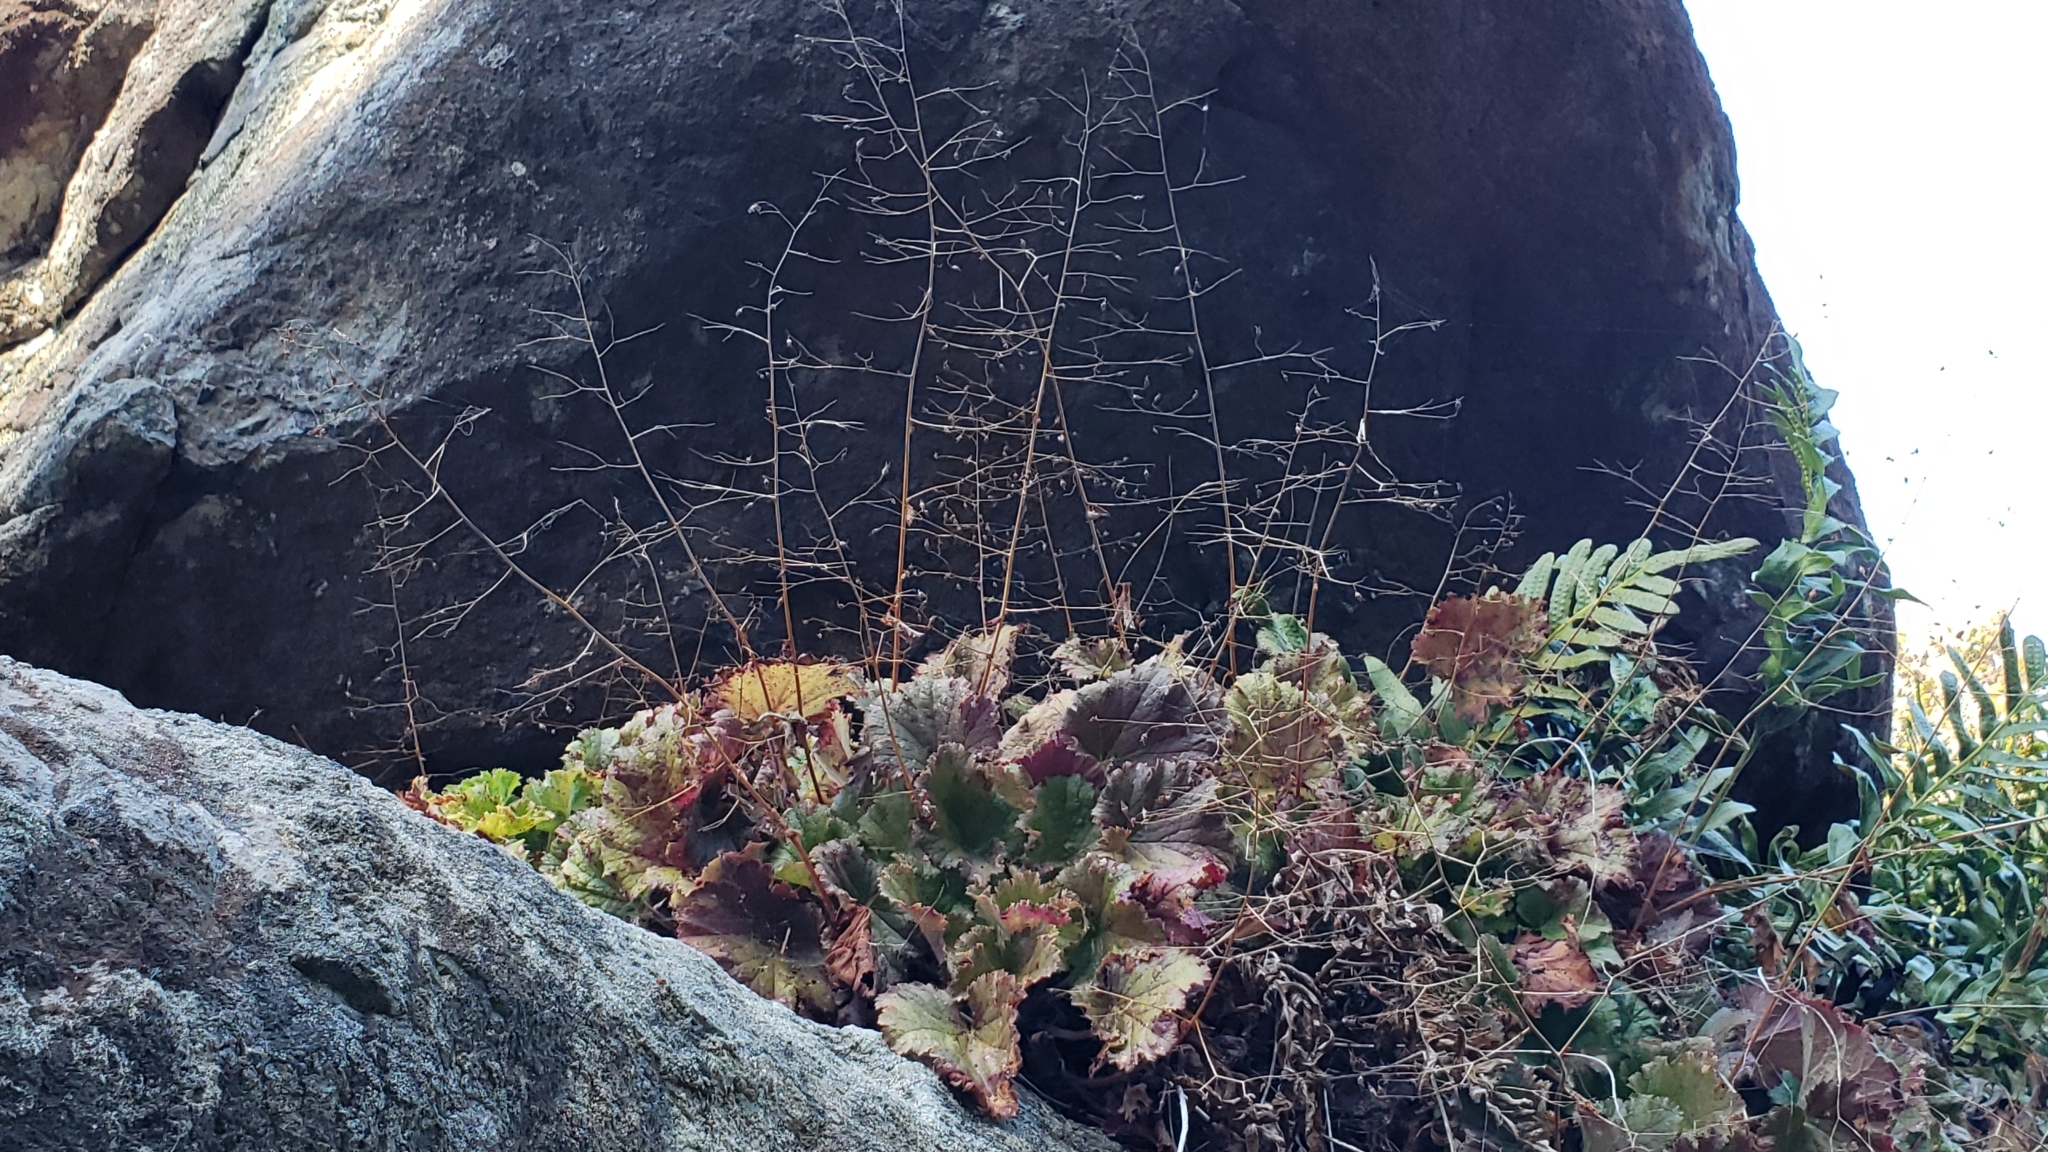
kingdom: Plantae
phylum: Tracheophyta
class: Magnoliopsida
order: Saxifragales
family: Saxifragaceae
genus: Heuchera
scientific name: Heuchera micrantha
